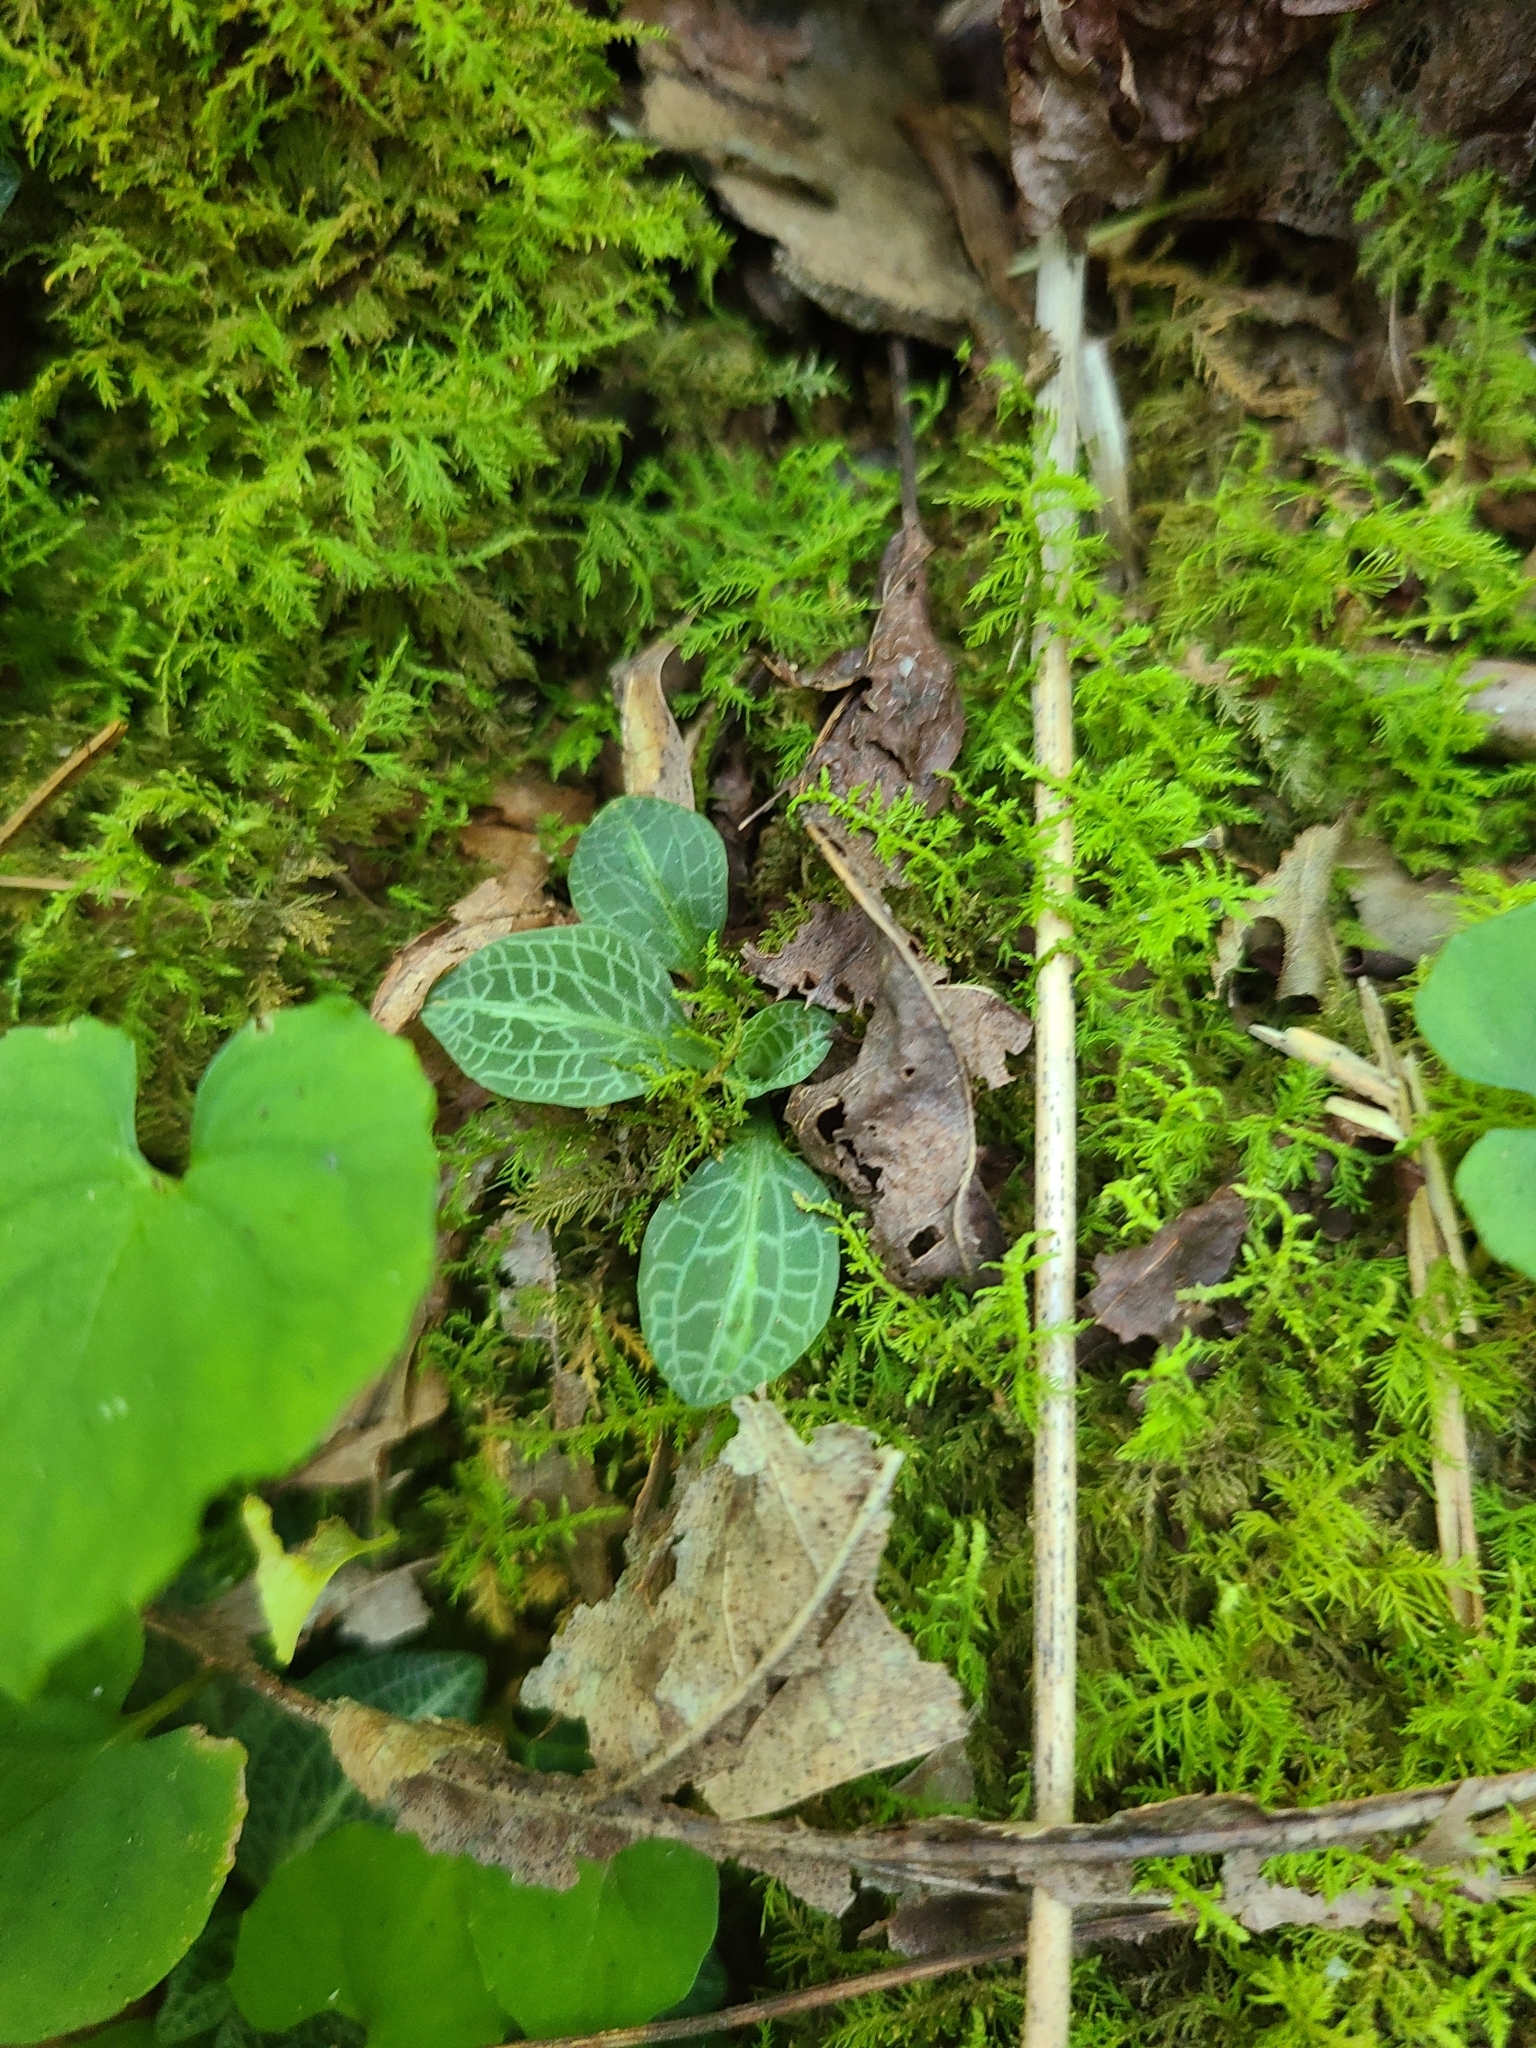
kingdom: Plantae
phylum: Tracheophyta
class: Liliopsida
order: Asparagales
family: Orchidaceae
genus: Goodyera
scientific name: Goodyera pubescens
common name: Downy rattlesnake-plantain
